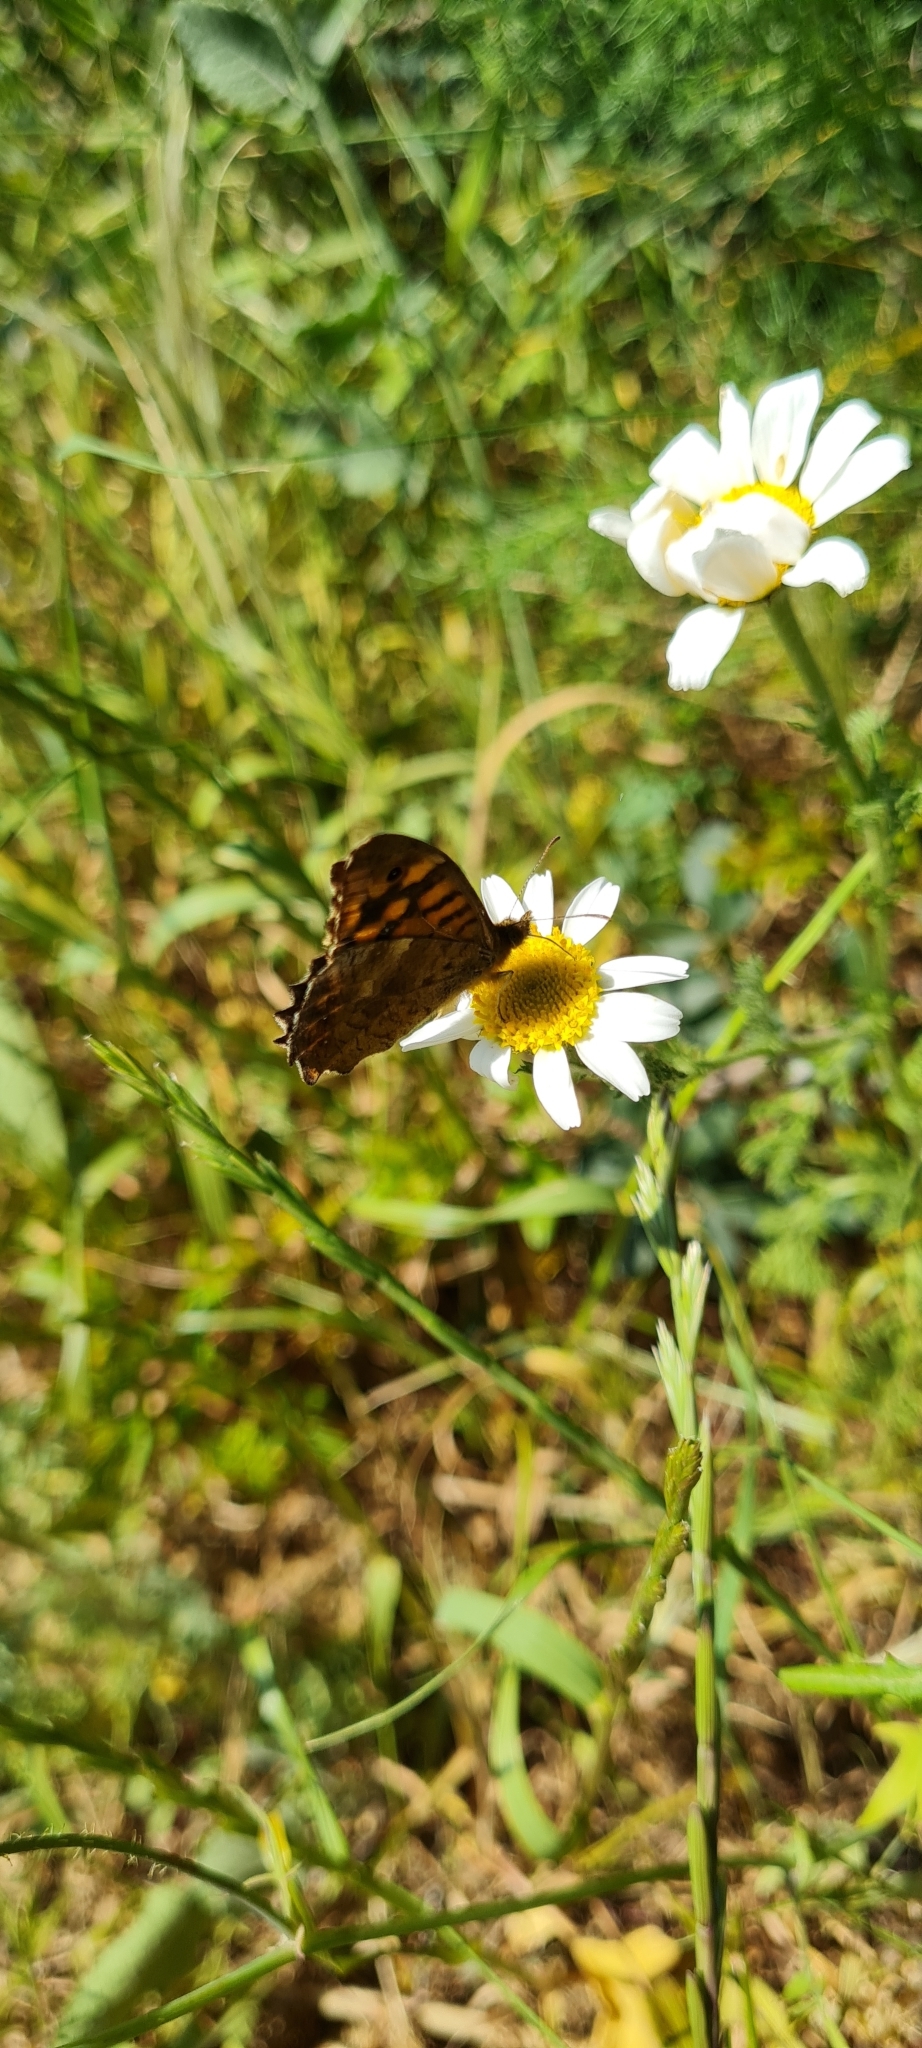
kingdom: Animalia
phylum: Arthropoda
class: Insecta
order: Lepidoptera
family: Nymphalidae
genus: Pararge
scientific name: Pararge aegeria
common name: Speckled wood
